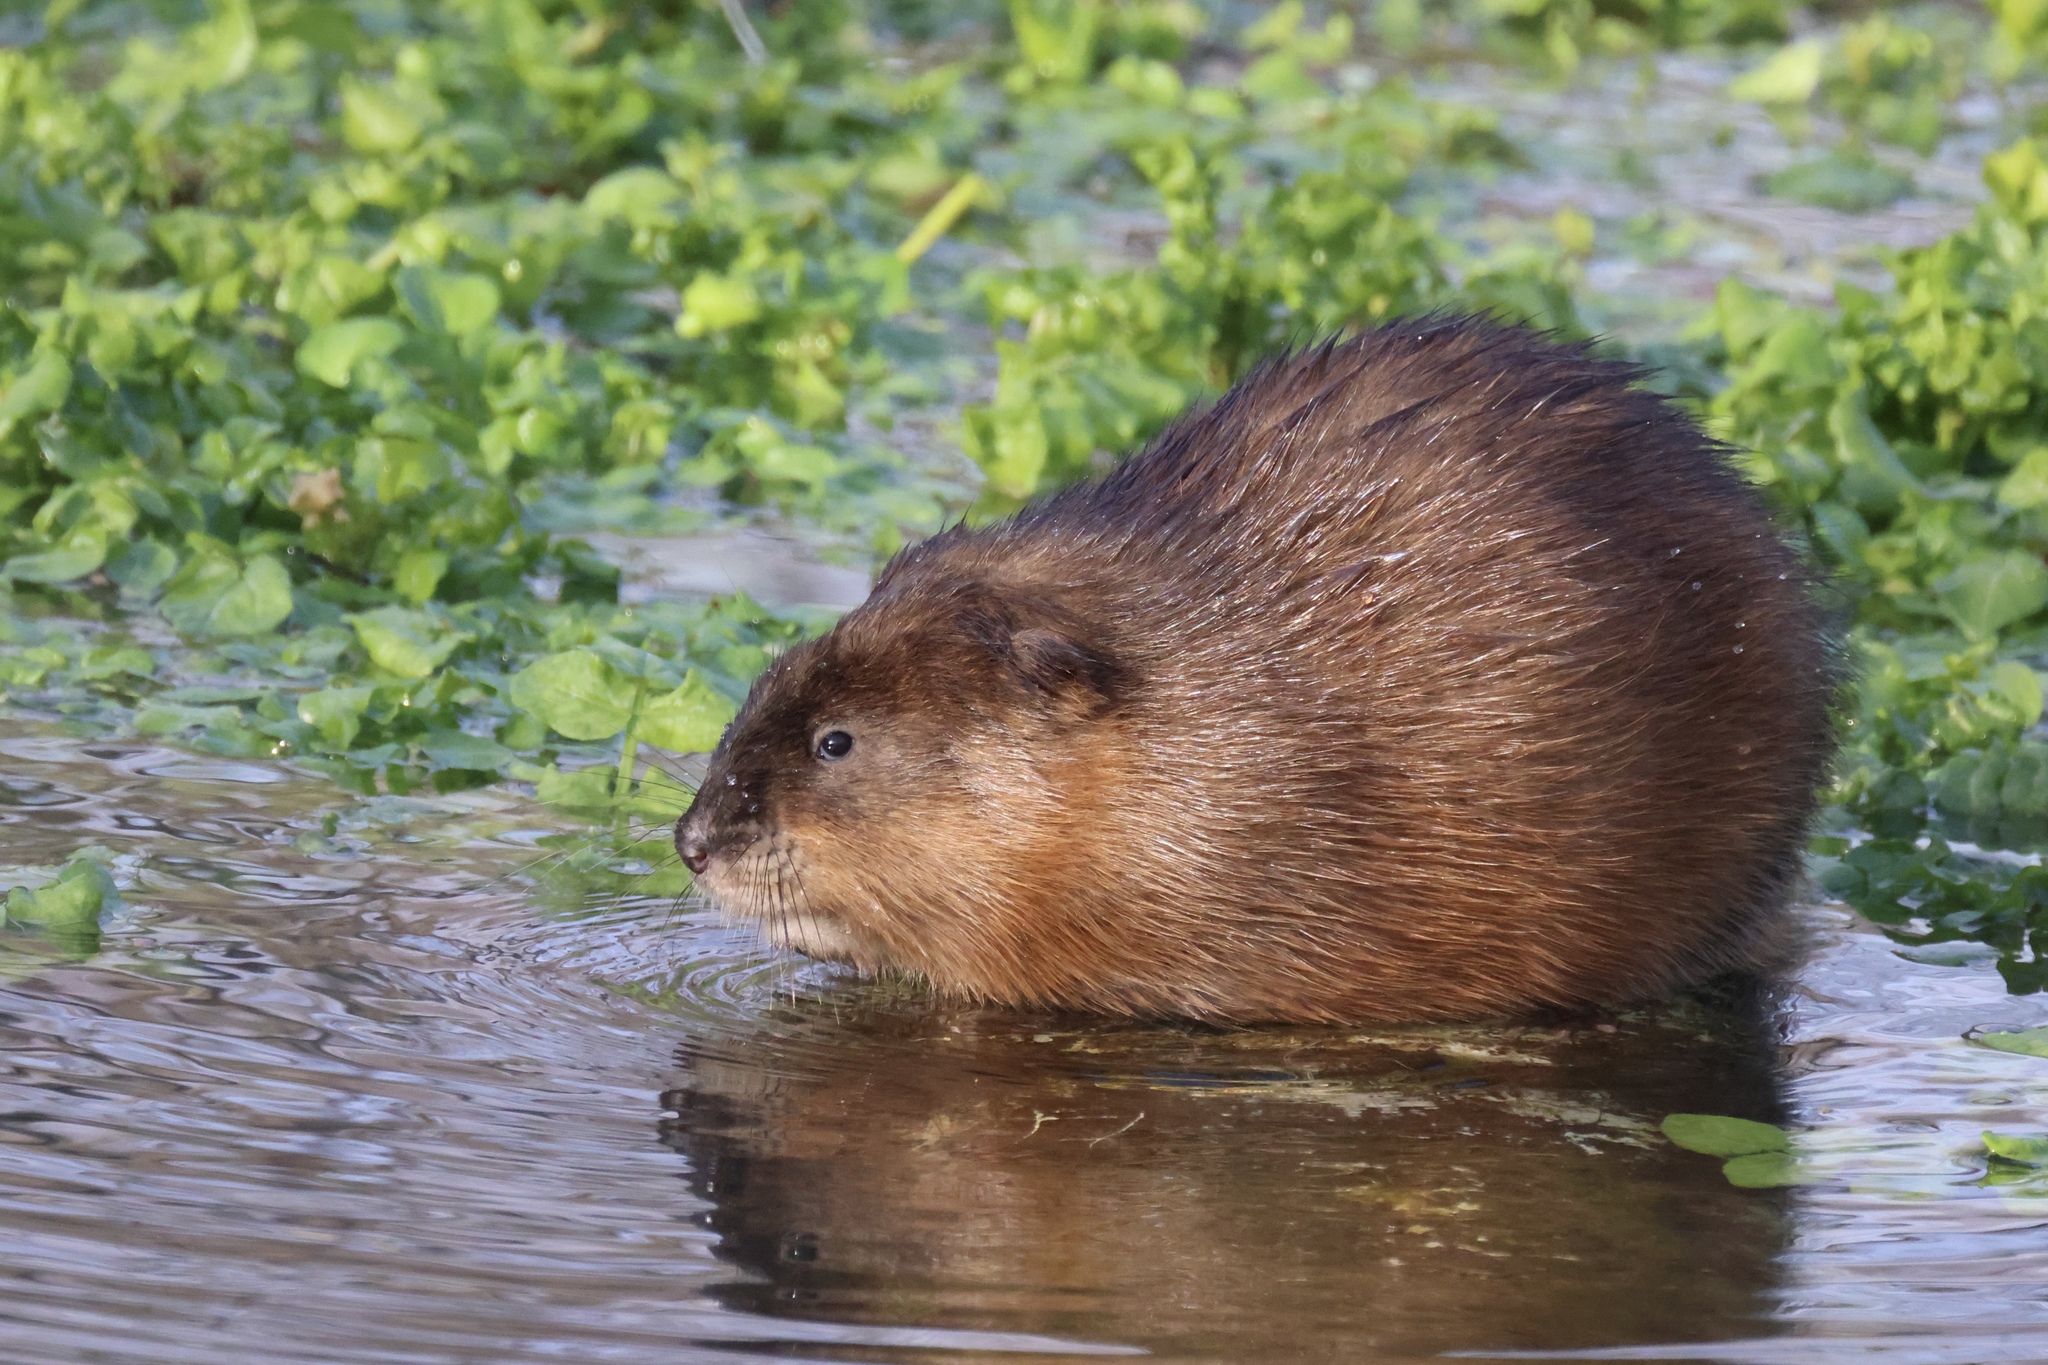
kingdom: Animalia
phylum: Chordata
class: Mammalia
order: Rodentia
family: Cricetidae
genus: Ondatra
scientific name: Ondatra zibethicus
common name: Muskrat
